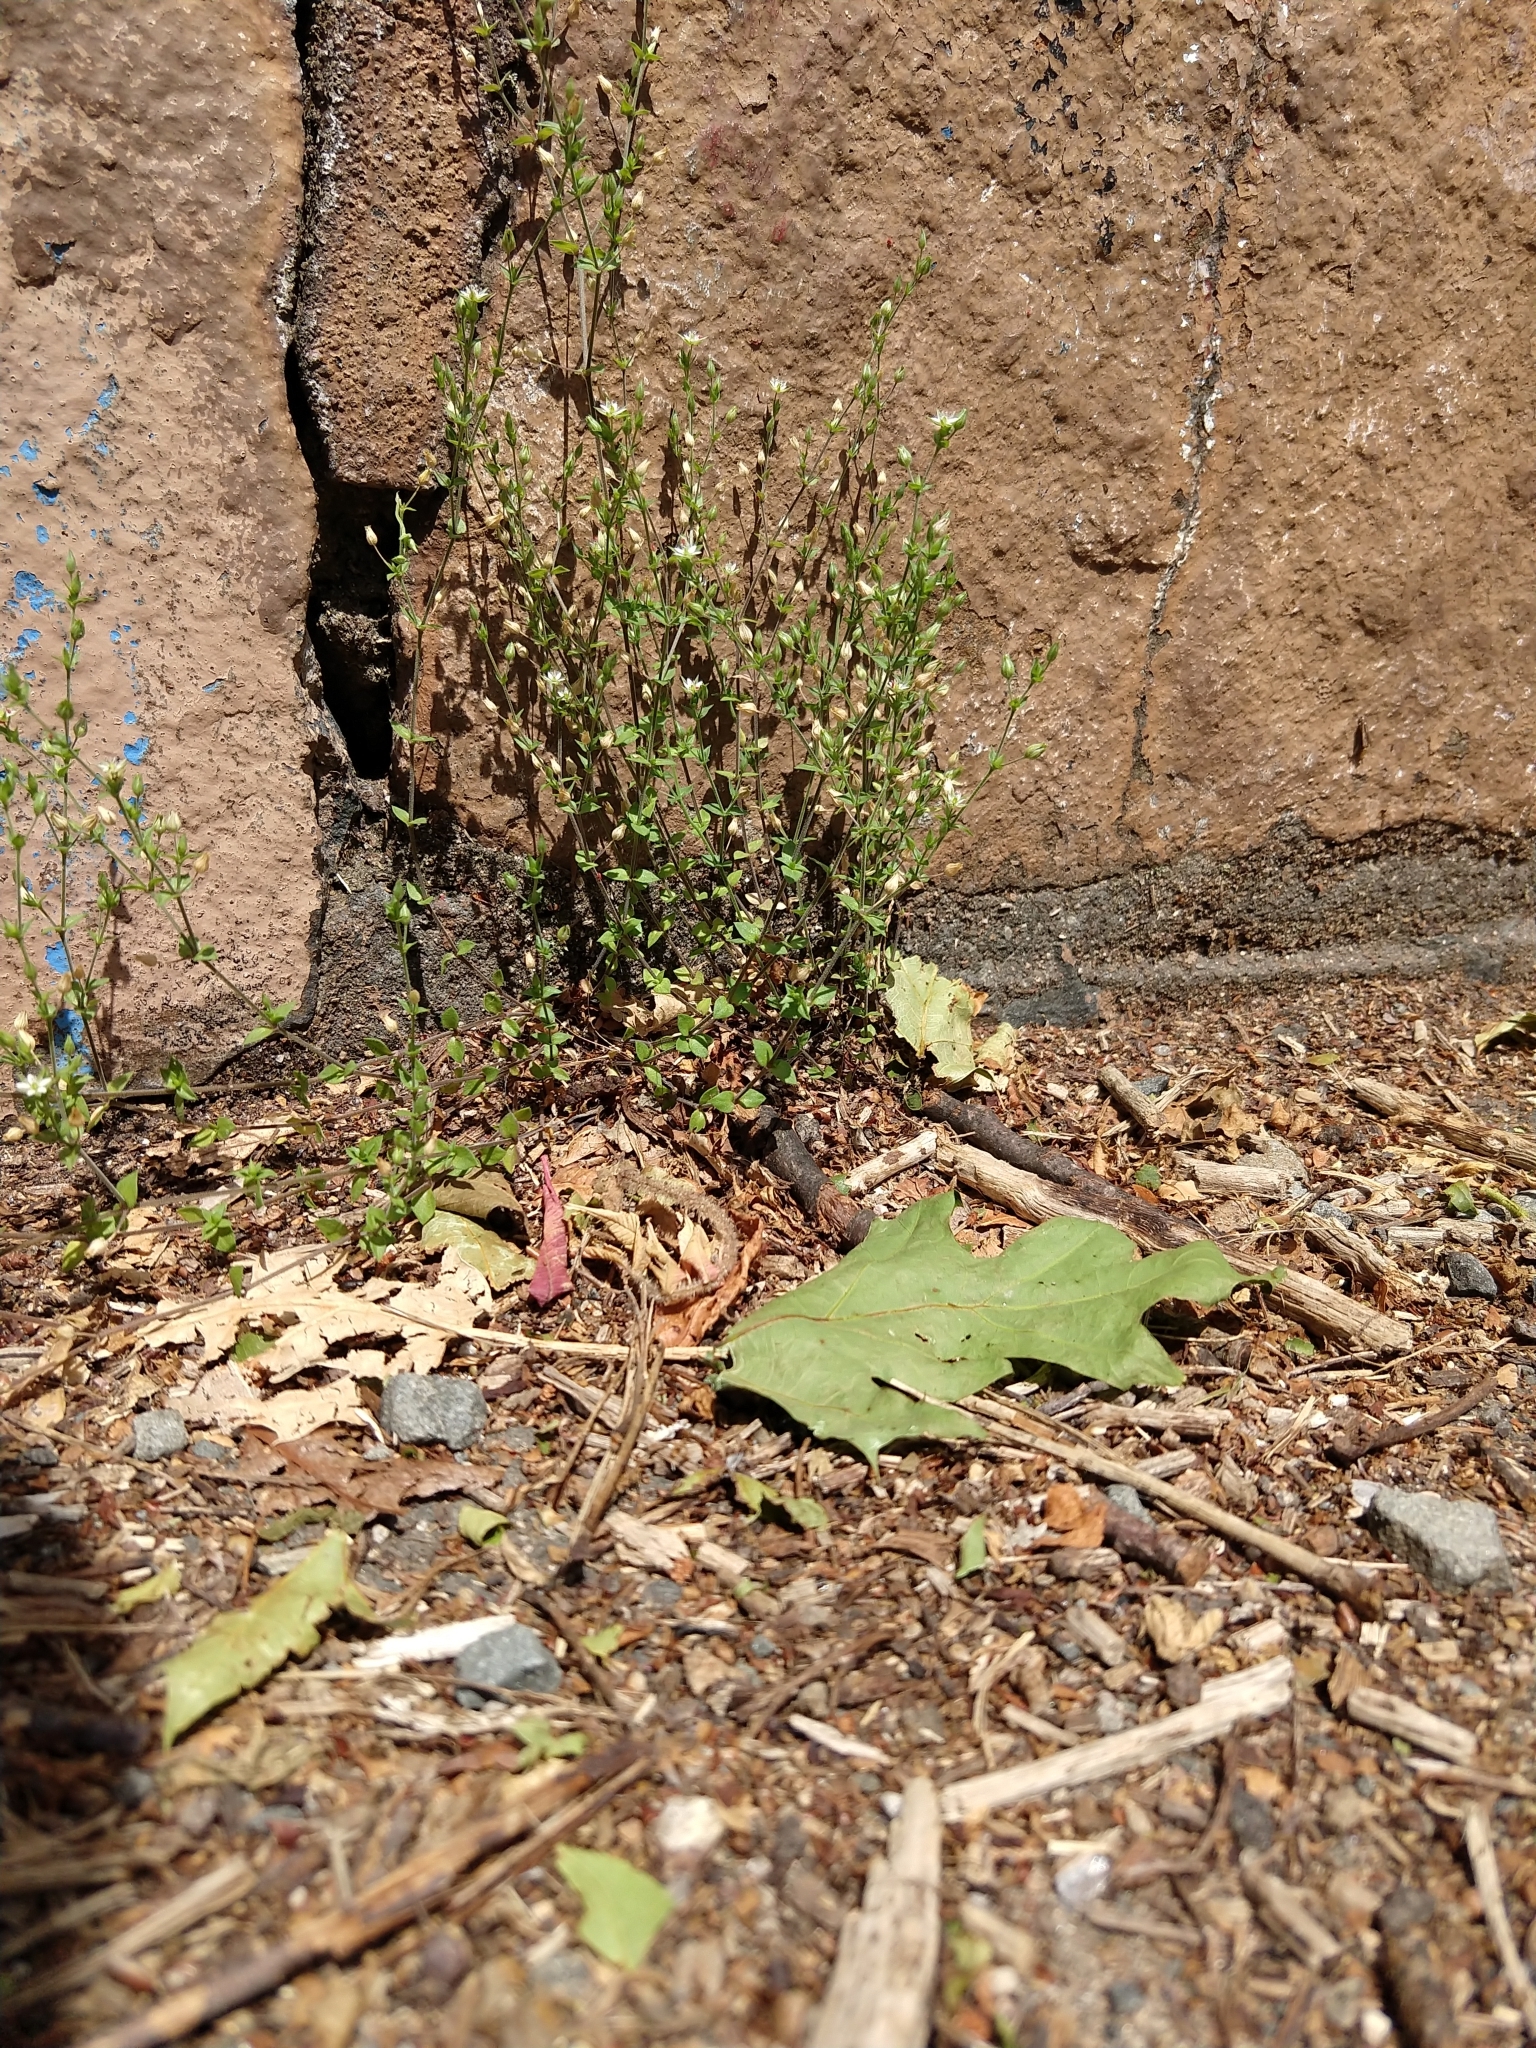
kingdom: Plantae
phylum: Tracheophyta
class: Magnoliopsida
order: Caryophyllales
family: Caryophyllaceae
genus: Arenaria
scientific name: Arenaria serpyllifolia
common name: Thyme-leaved sandwort
